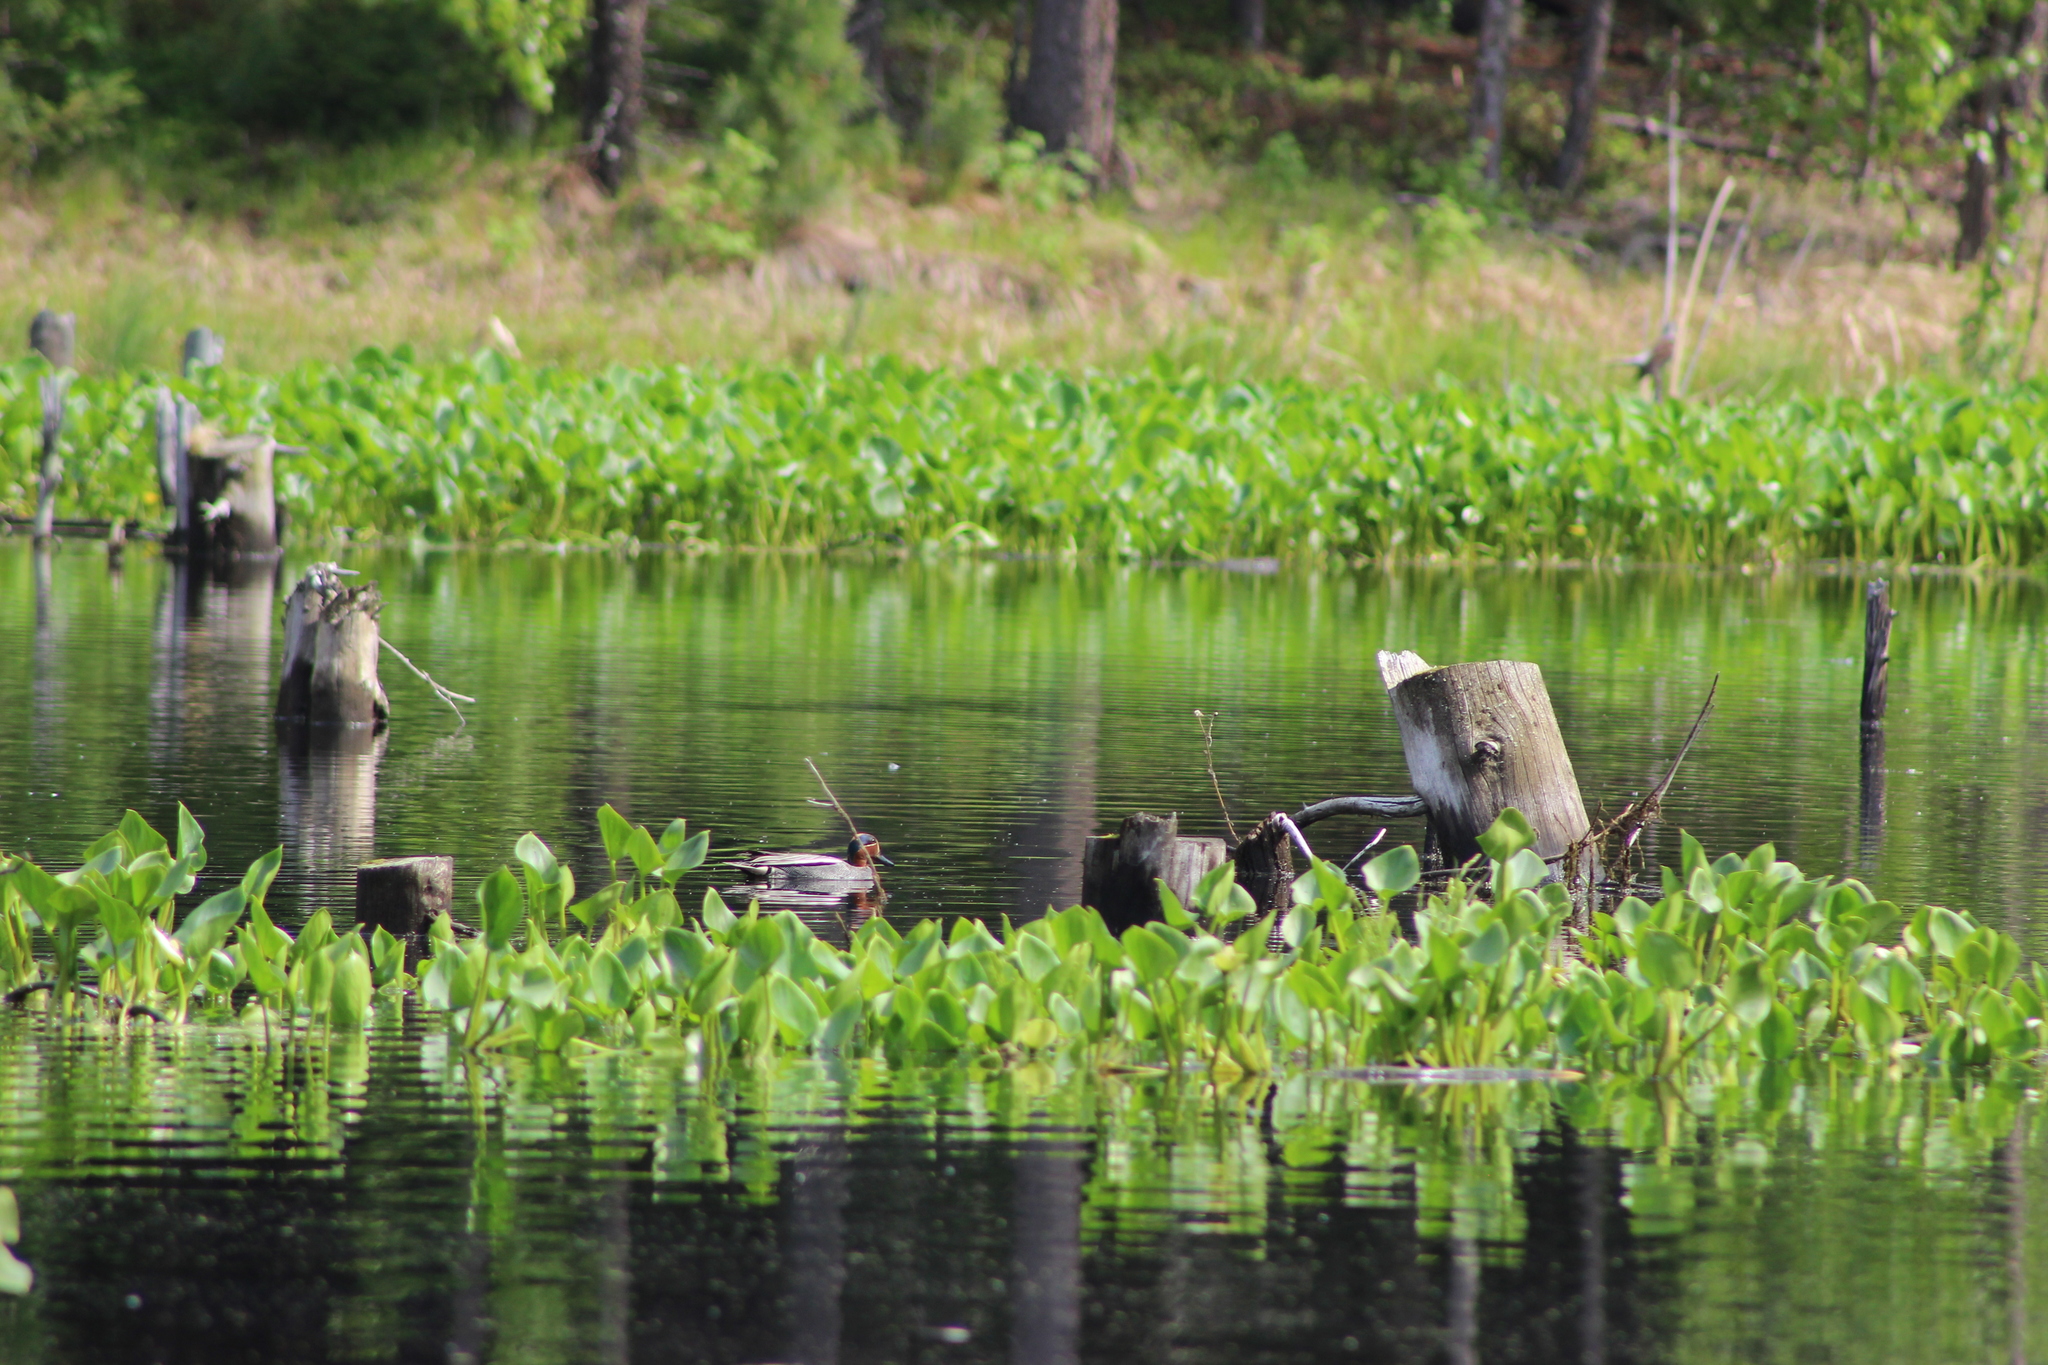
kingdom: Animalia
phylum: Chordata
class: Aves
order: Anseriformes
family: Anatidae
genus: Anas
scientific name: Anas crecca
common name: Eurasian teal
